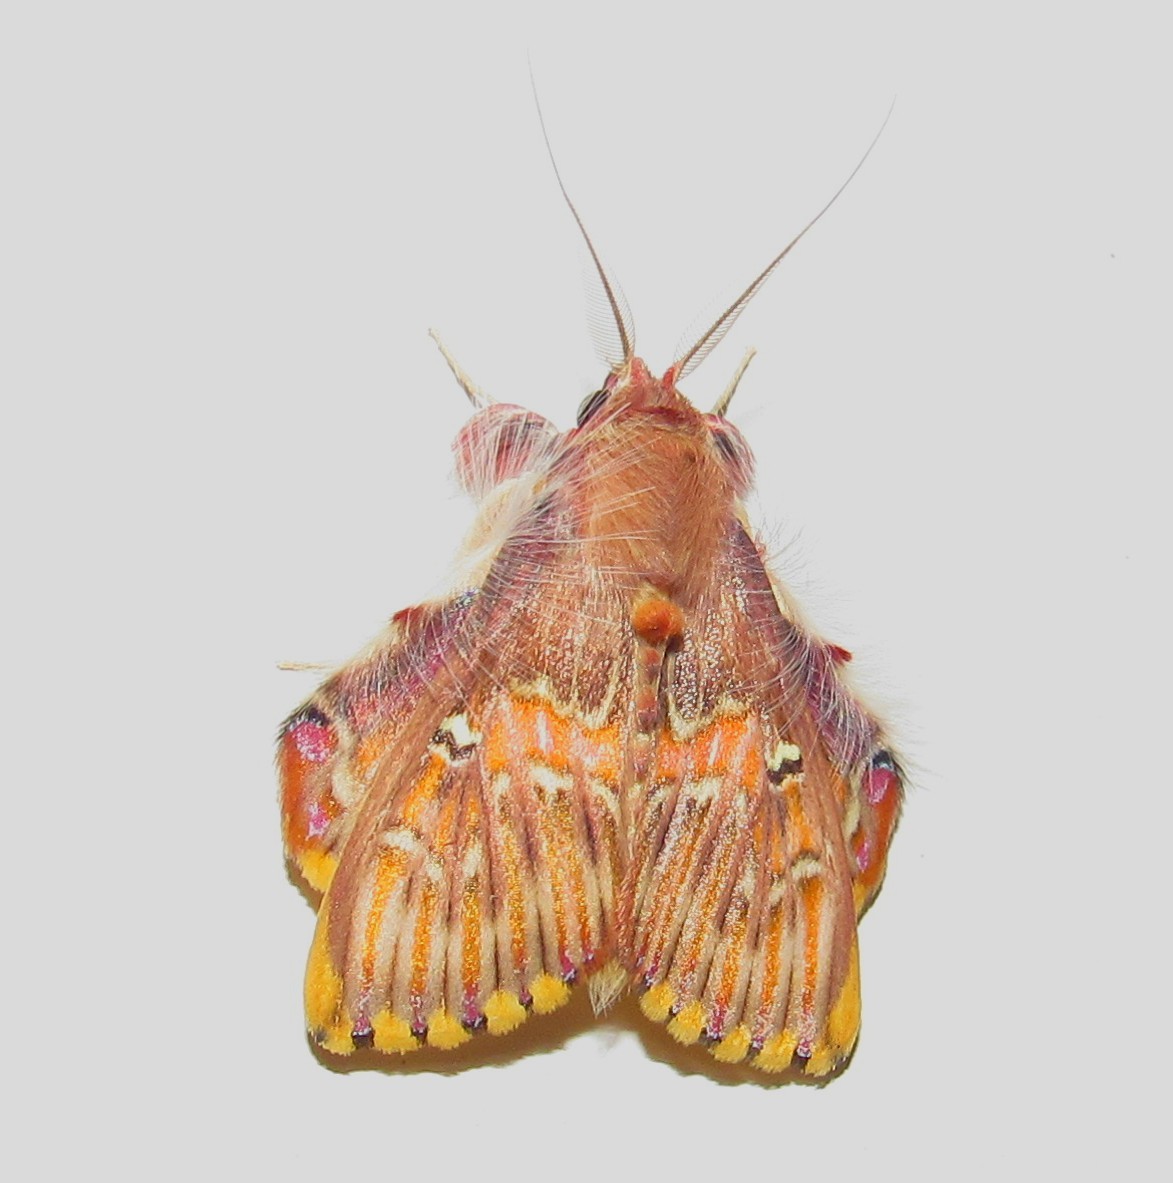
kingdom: Animalia
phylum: Arthropoda
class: Insecta
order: Lepidoptera
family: Erebidae
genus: Sosxetra
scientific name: Sosxetra grata
